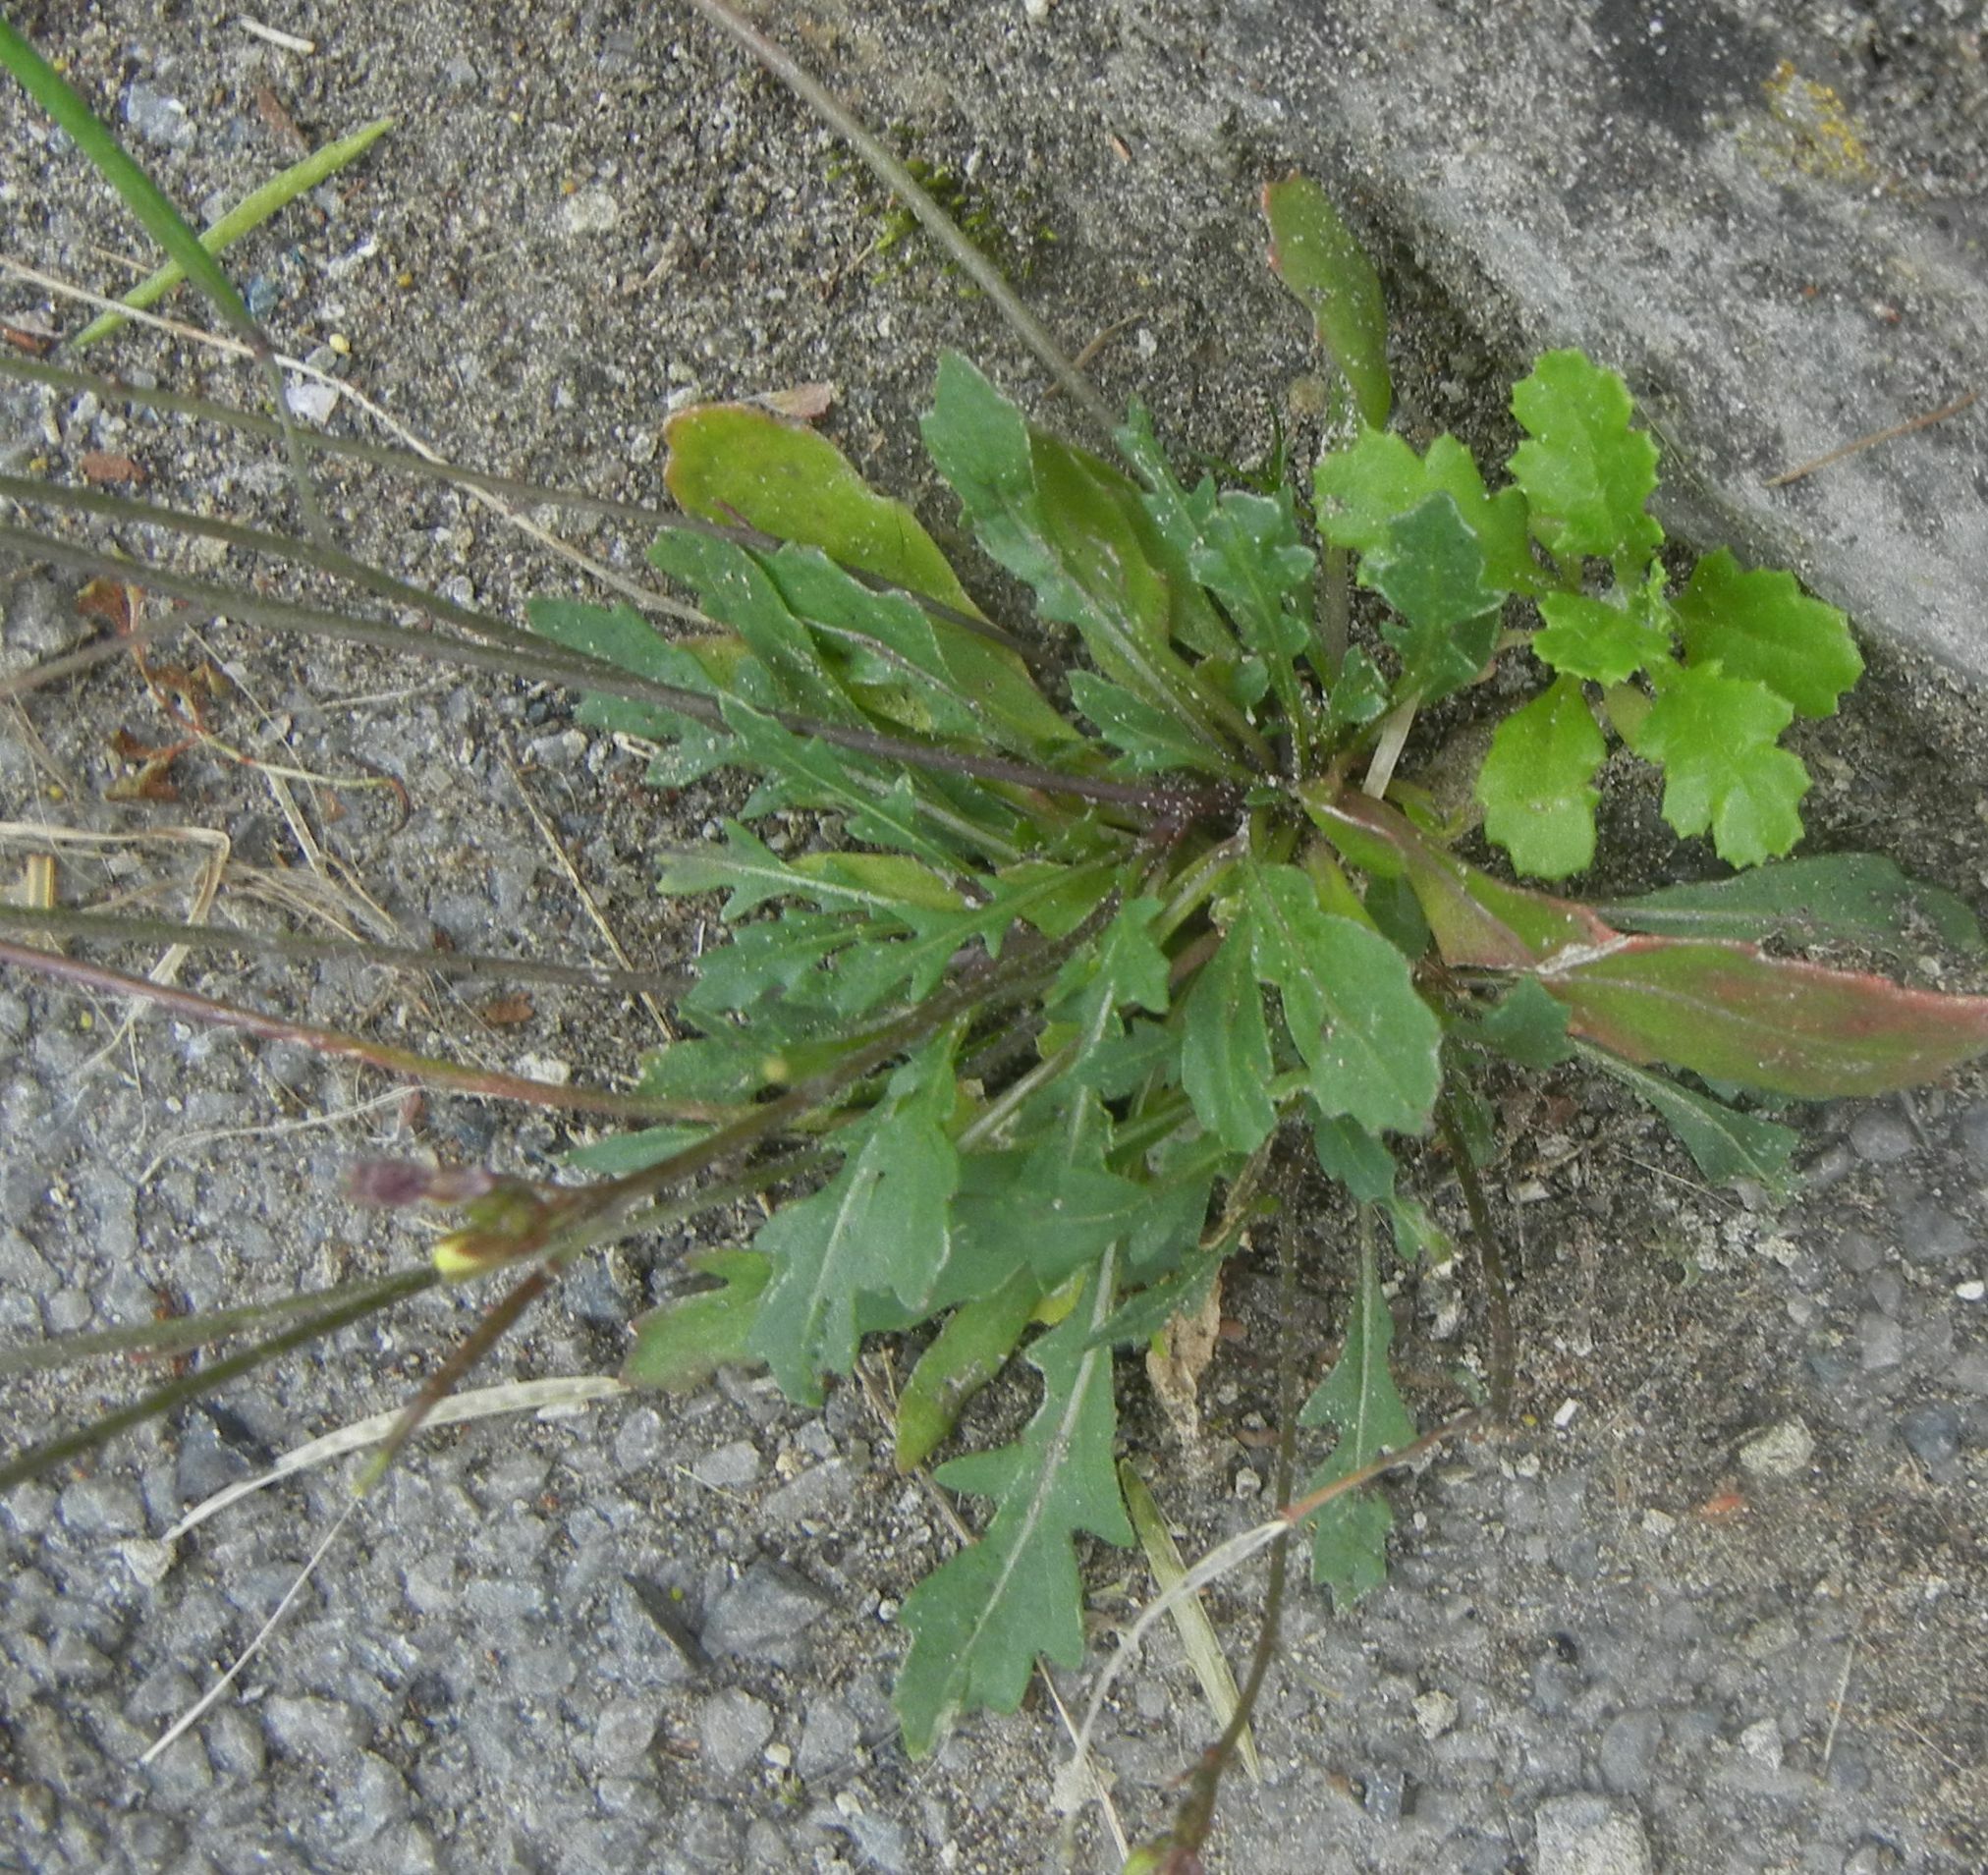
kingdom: Plantae
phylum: Tracheophyta
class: Magnoliopsida
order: Brassicales
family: Brassicaceae
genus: Diplotaxis
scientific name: Diplotaxis muralis
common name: Annual wall-rocket
